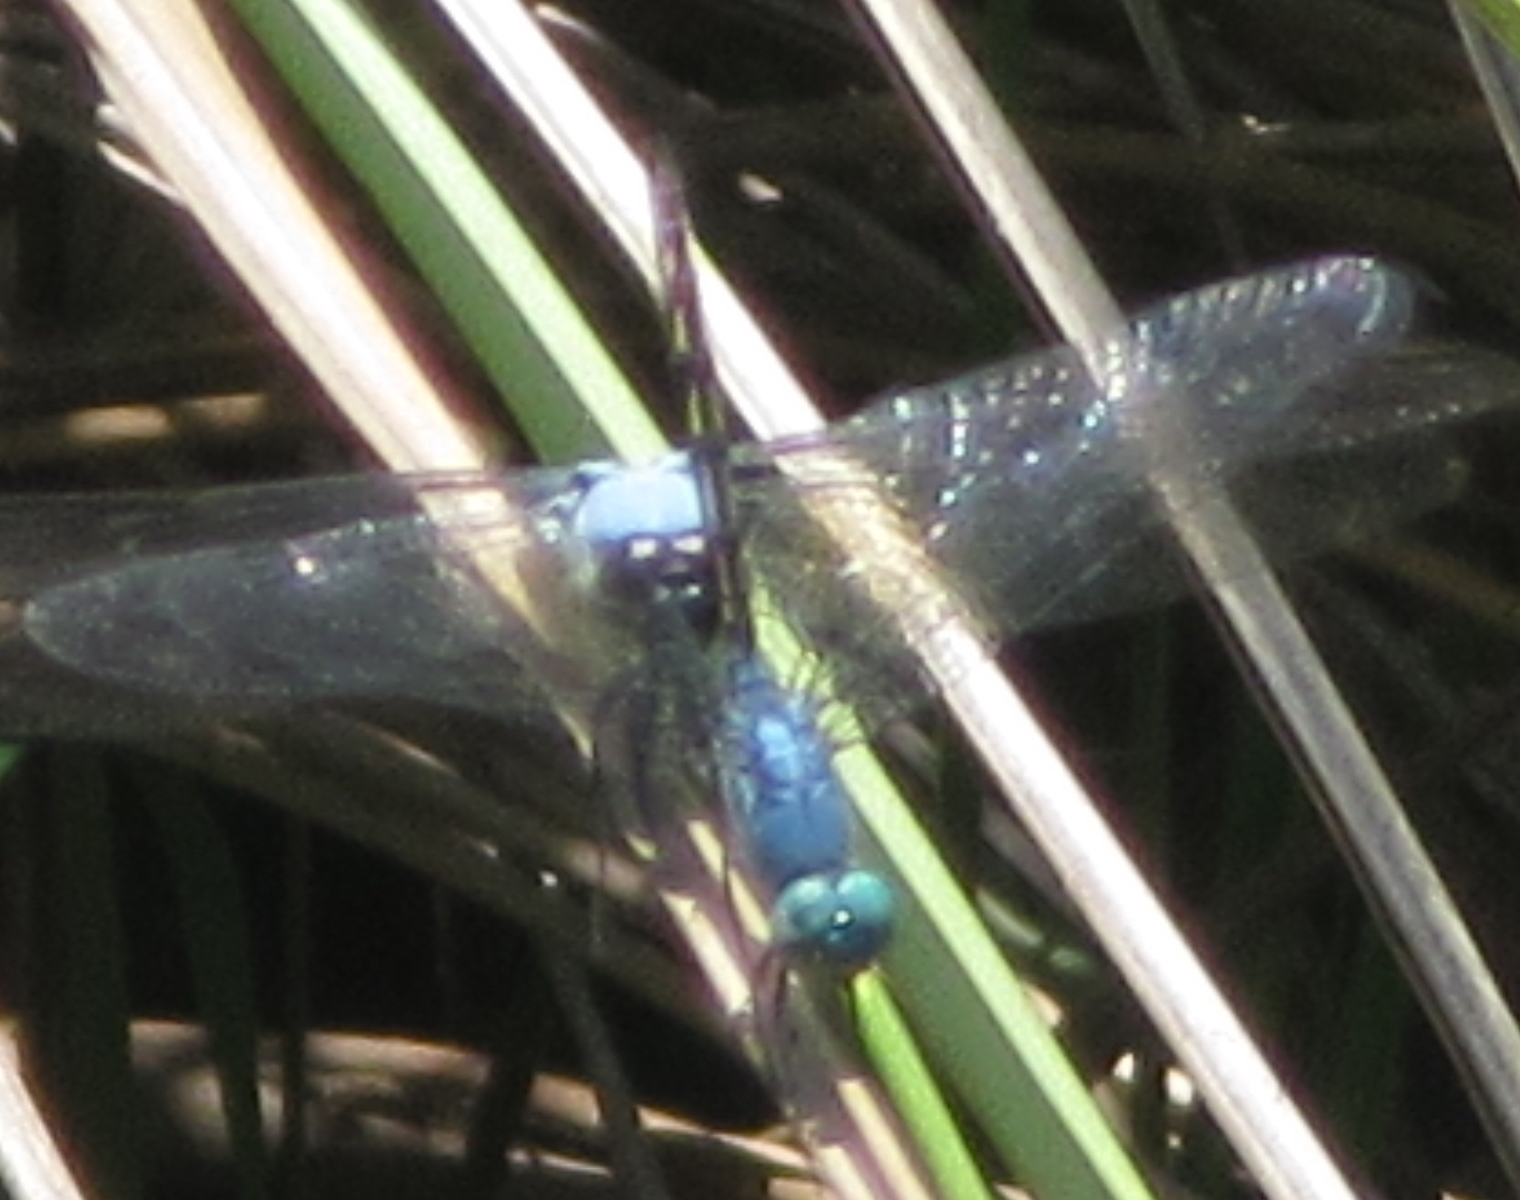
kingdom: Animalia
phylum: Arthropoda
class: Insecta
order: Odonata
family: Libellulidae
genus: Trithemis
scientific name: Trithemis stictica
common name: Jaunty dropwing
